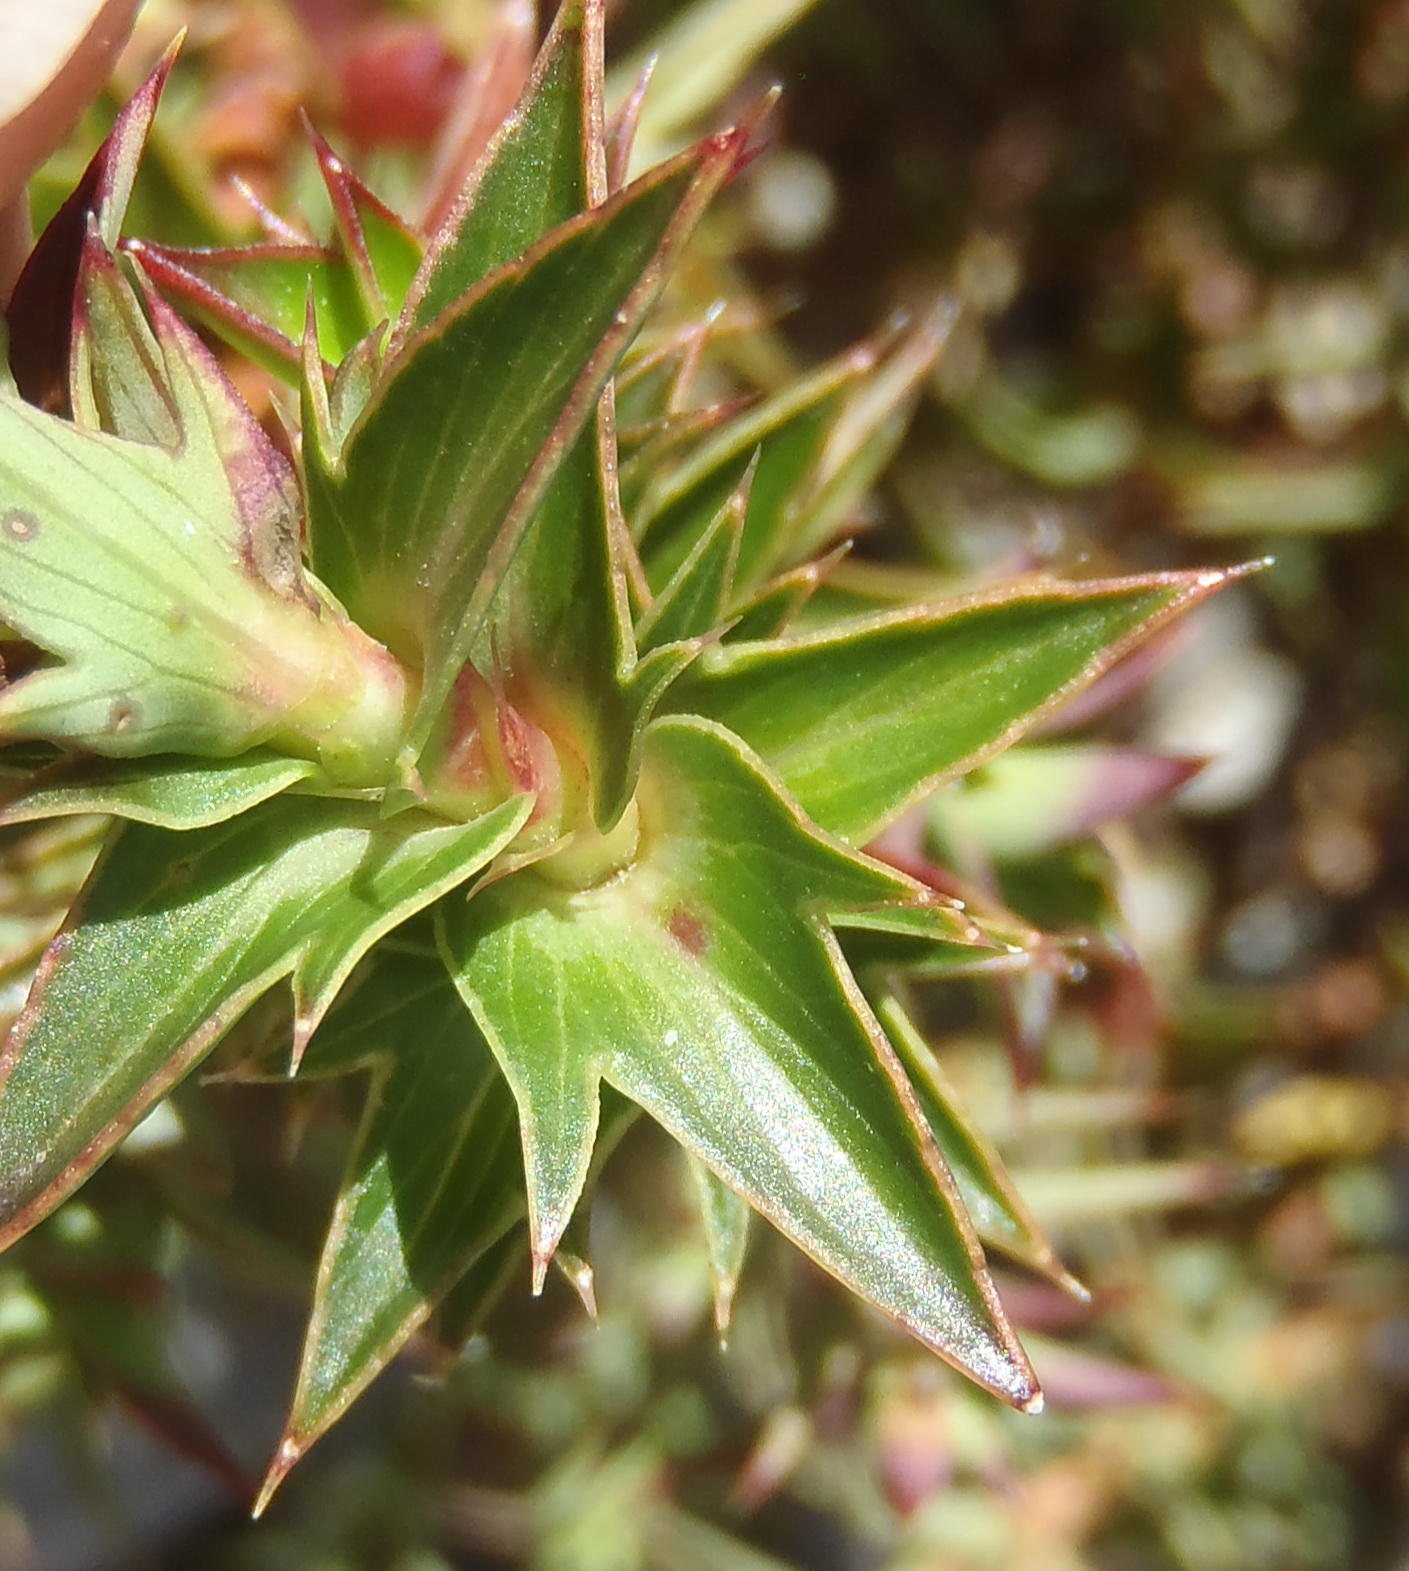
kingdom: Plantae
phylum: Tracheophyta
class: Magnoliopsida
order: Rosales
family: Rosaceae
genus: Cliffortia
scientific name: Cliffortia ilicifolia
